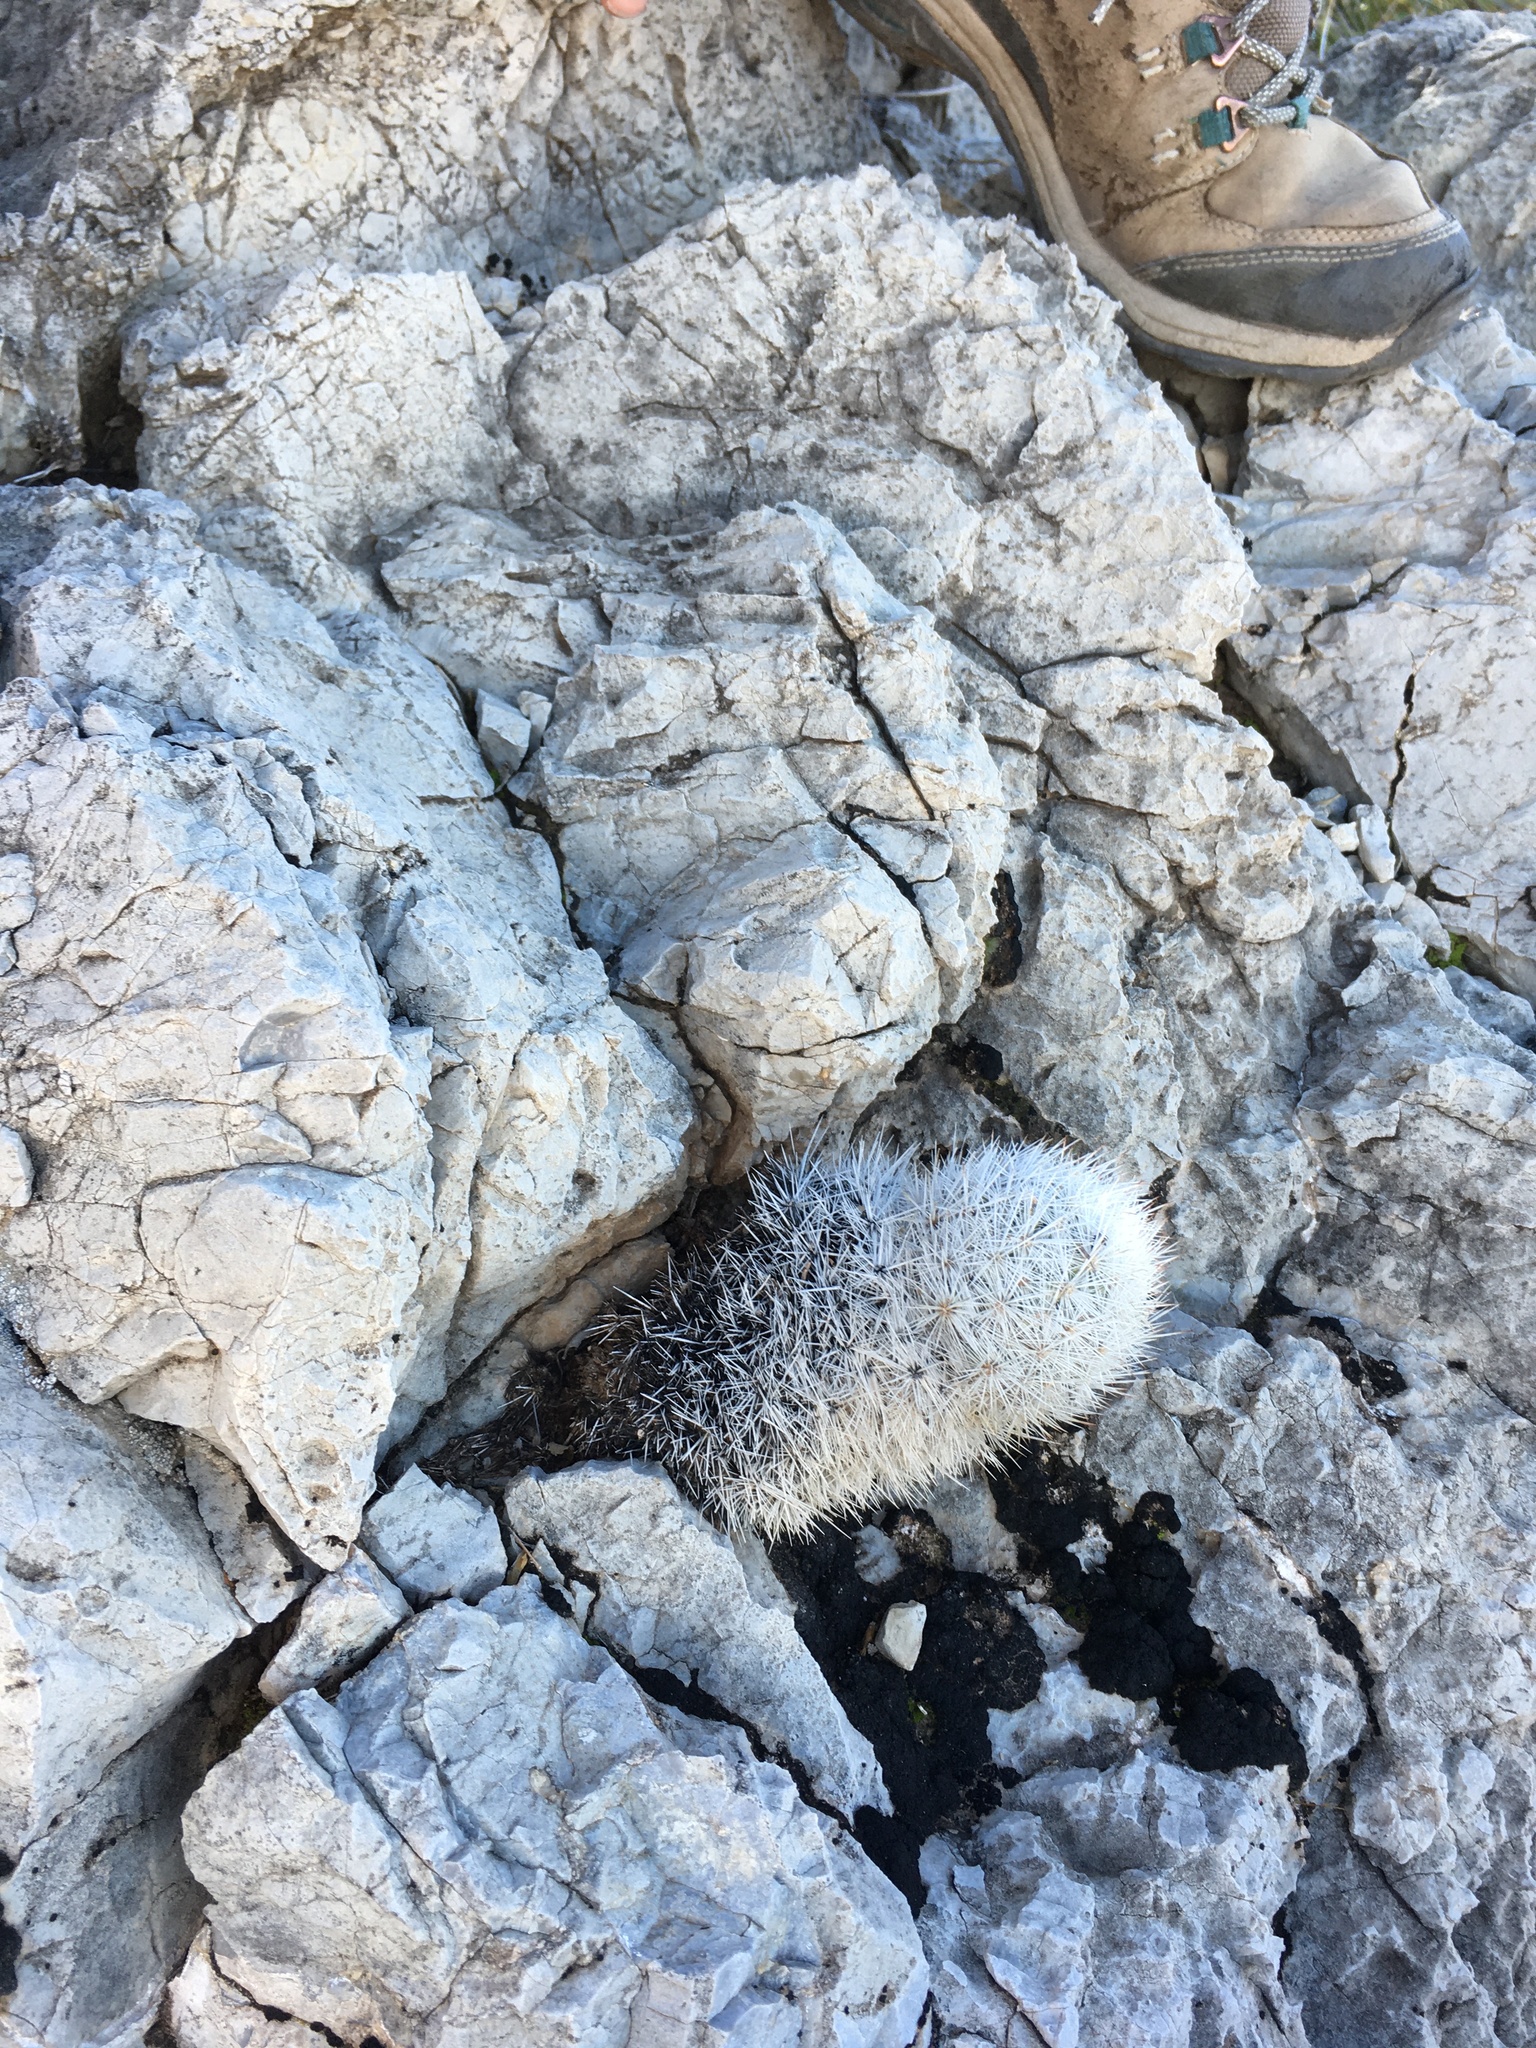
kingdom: Plantae
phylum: Tracheophyta
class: Magnoliopsida
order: Caryophyllales
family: Cactaceae
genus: Pelecyphora
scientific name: Pelecyphora sneedii
